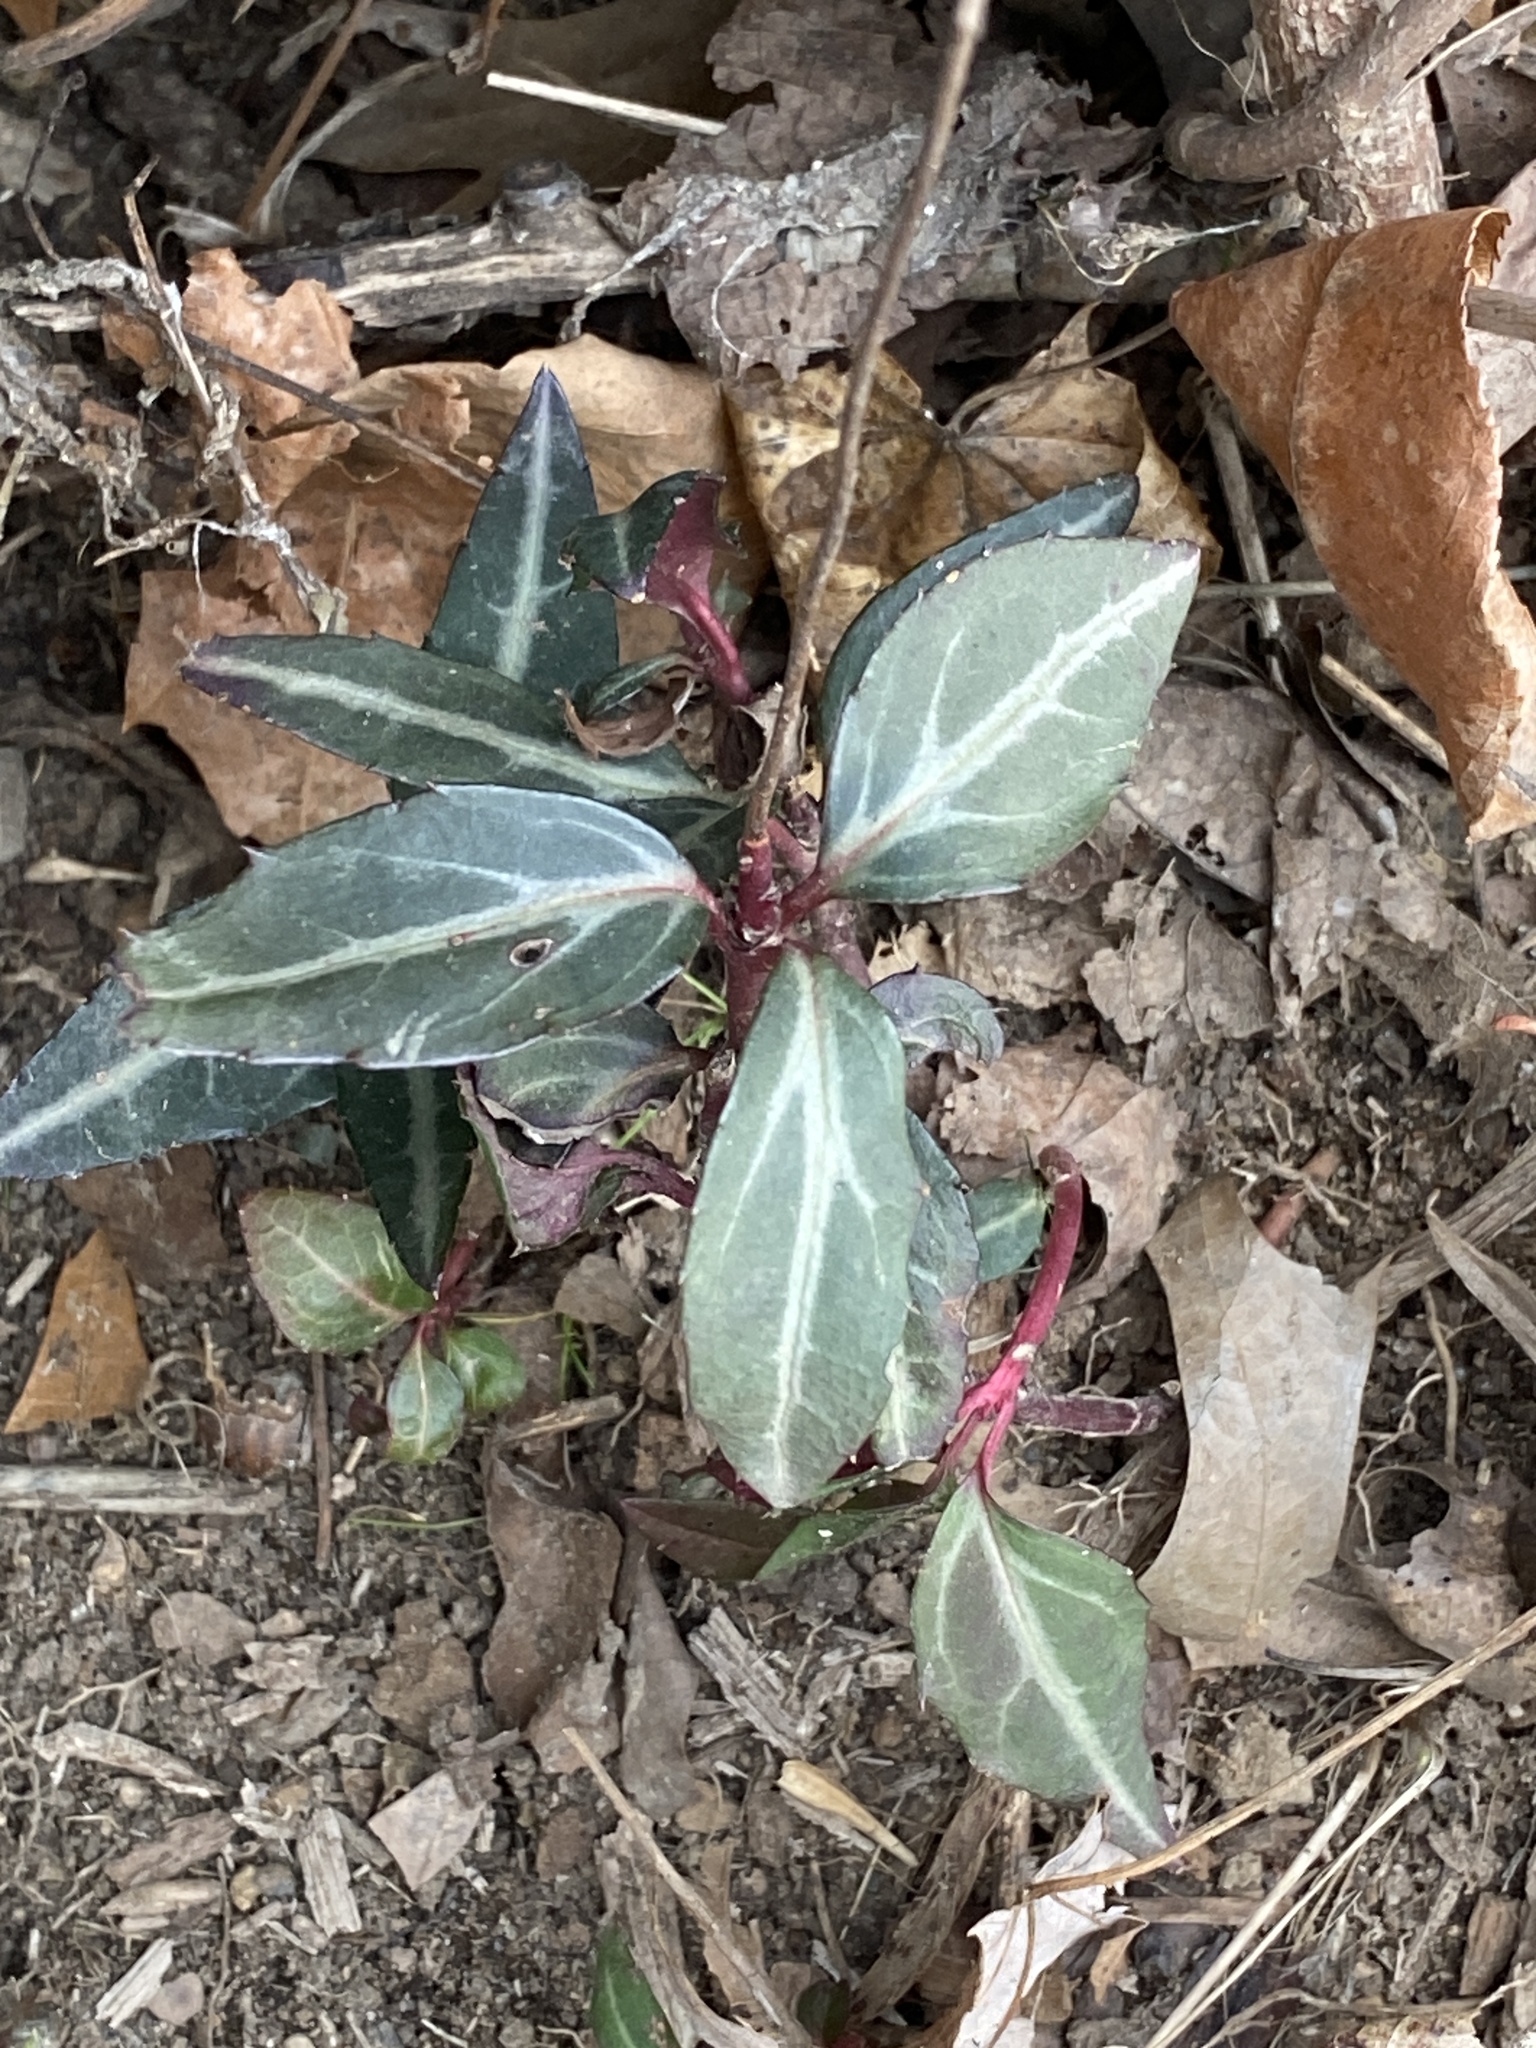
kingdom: Plantae
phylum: Tracheophyta
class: Magnoliopsida
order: Ericales
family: Ericaceae
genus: Chimaphila
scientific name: Chimaphila maculata
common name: Spotted pipsissewa
